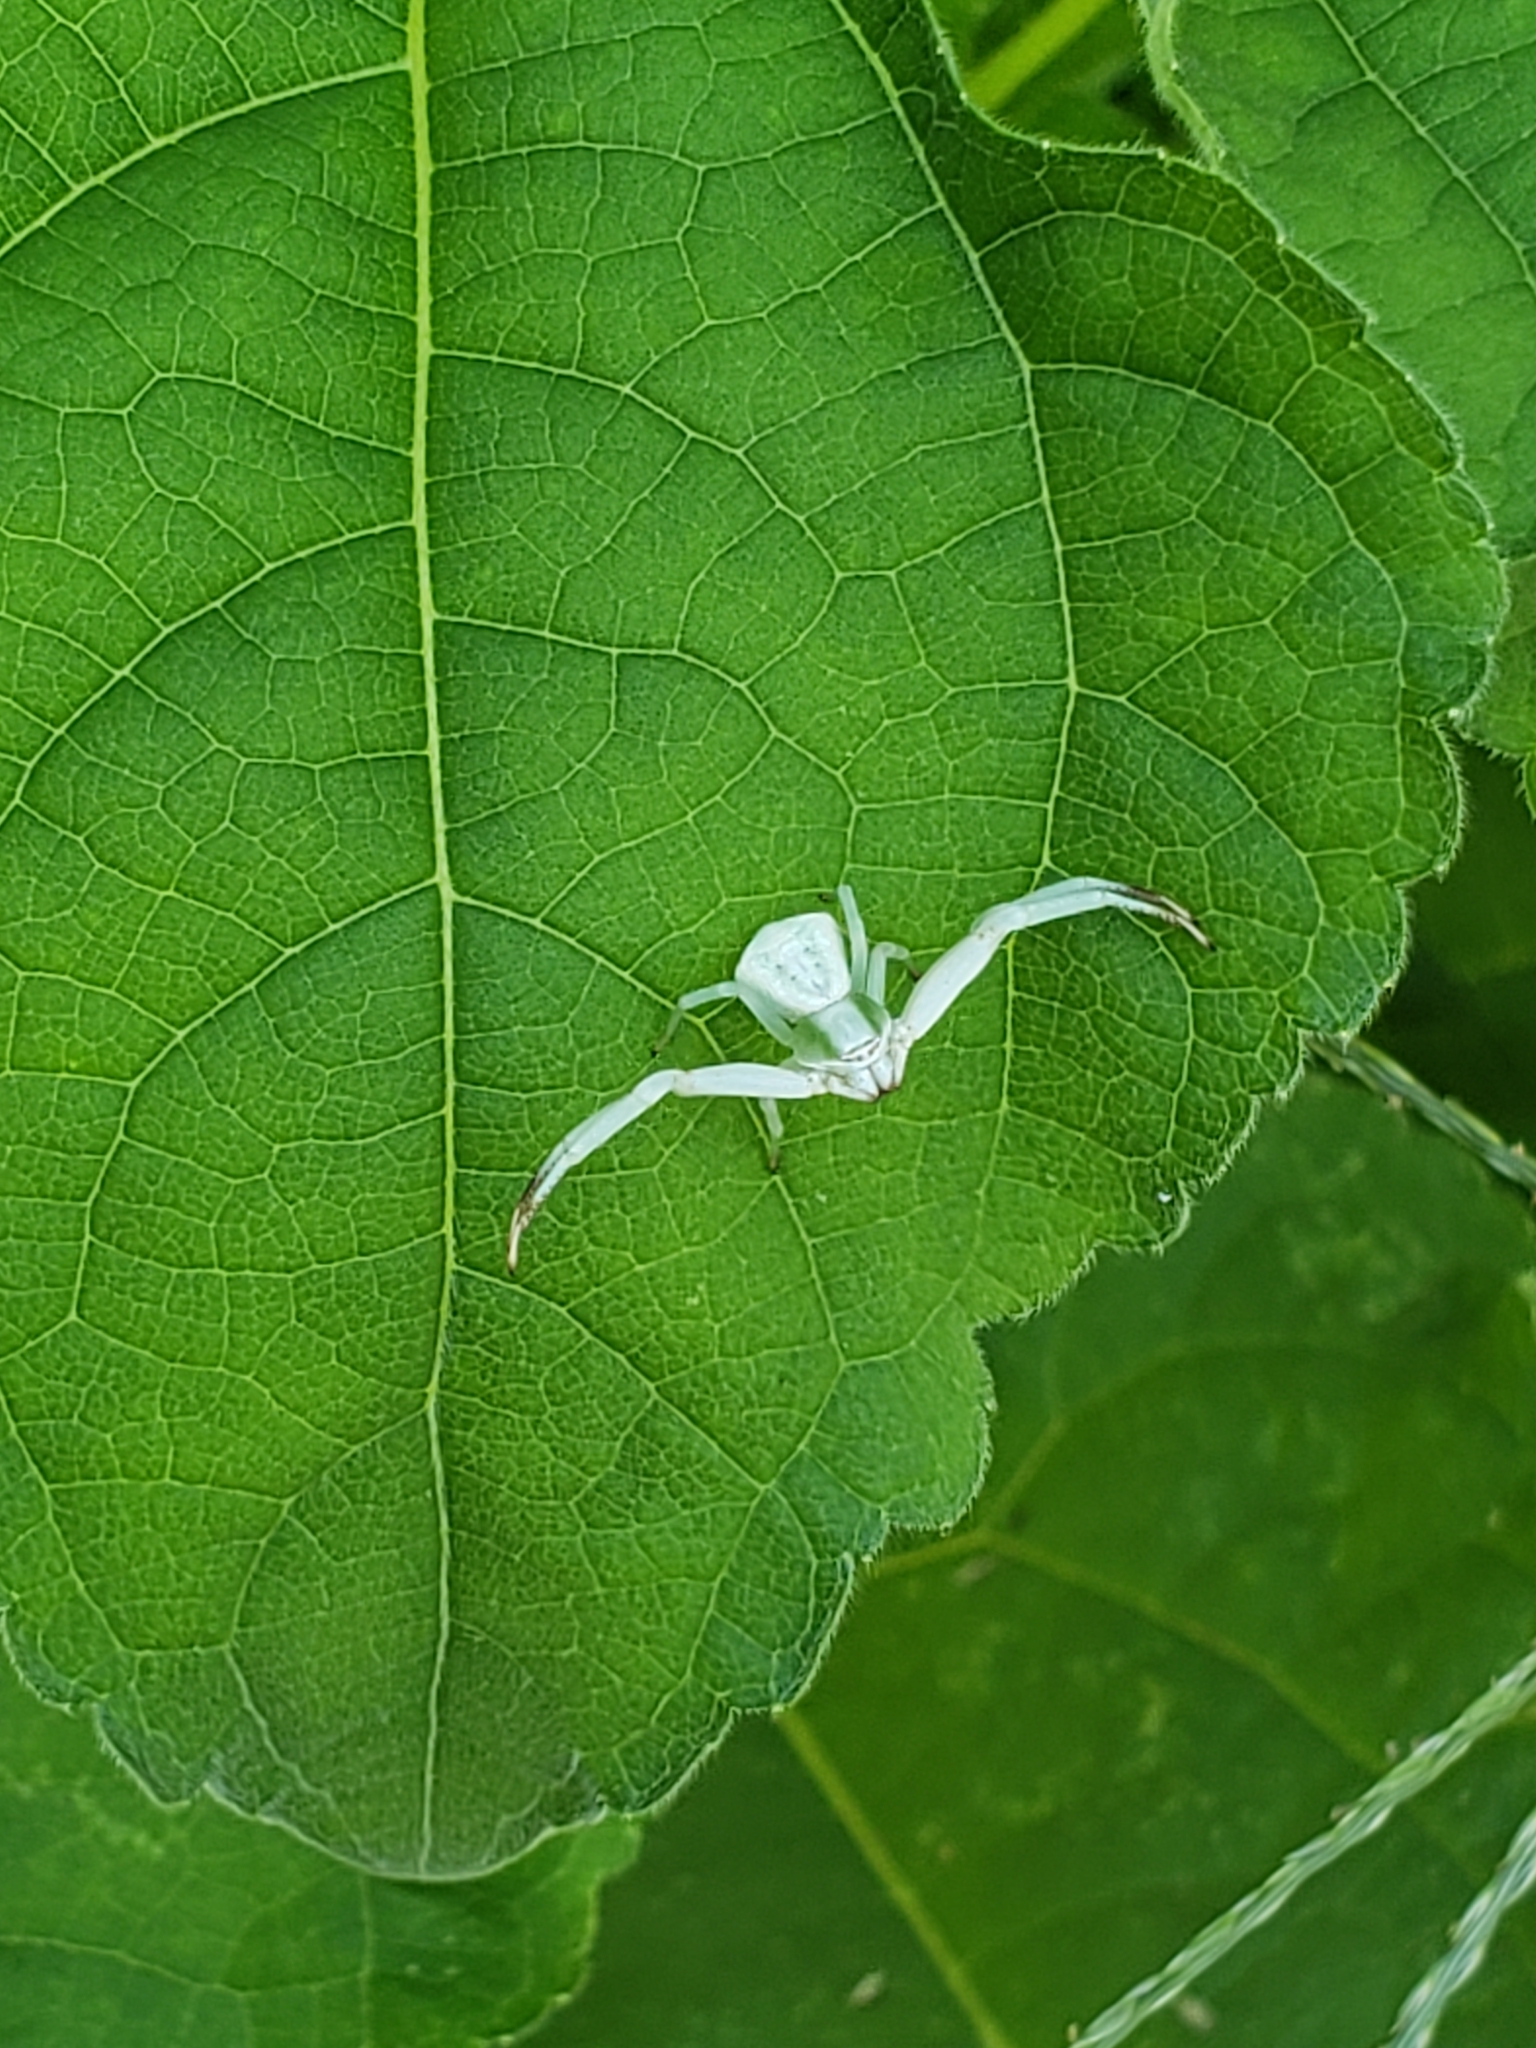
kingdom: Animalia
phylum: Arthropoda
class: Arachnida
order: Araneae
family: Thomisidae
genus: Misumenoides
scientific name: Misumenoides formosipes
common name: White-banded crab spider
